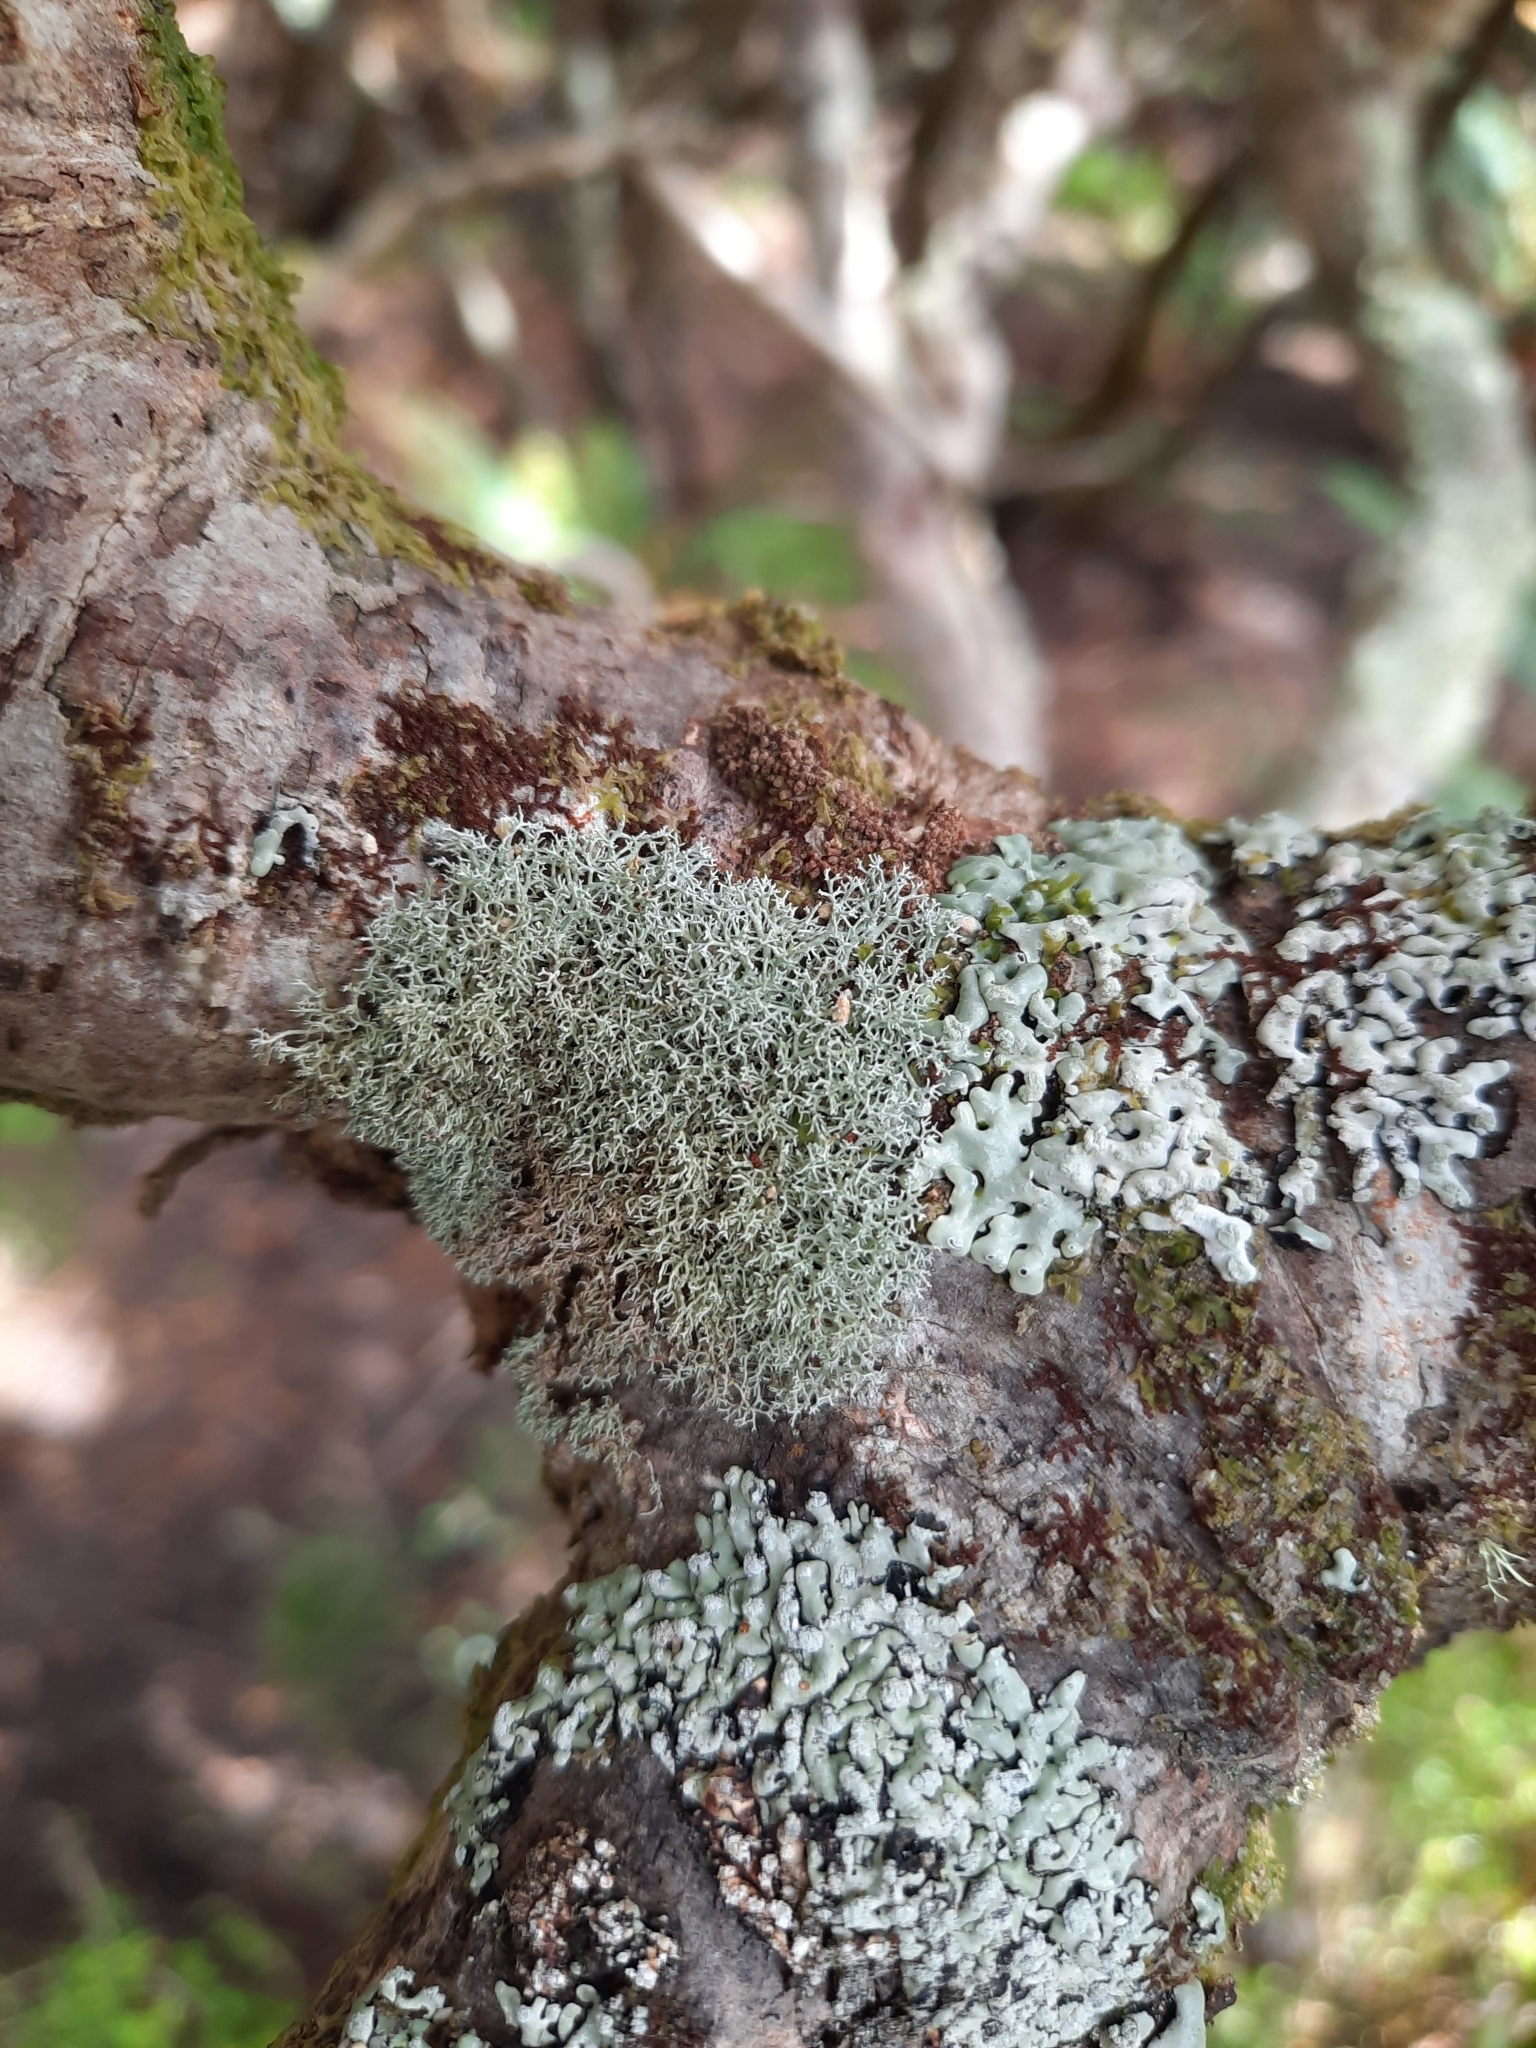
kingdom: Fungi
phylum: Ascomycota
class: Lecanoromycetes
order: Lecanorales
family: Sphaerophoraceae
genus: Leifidium
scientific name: Leifidium tenerum
